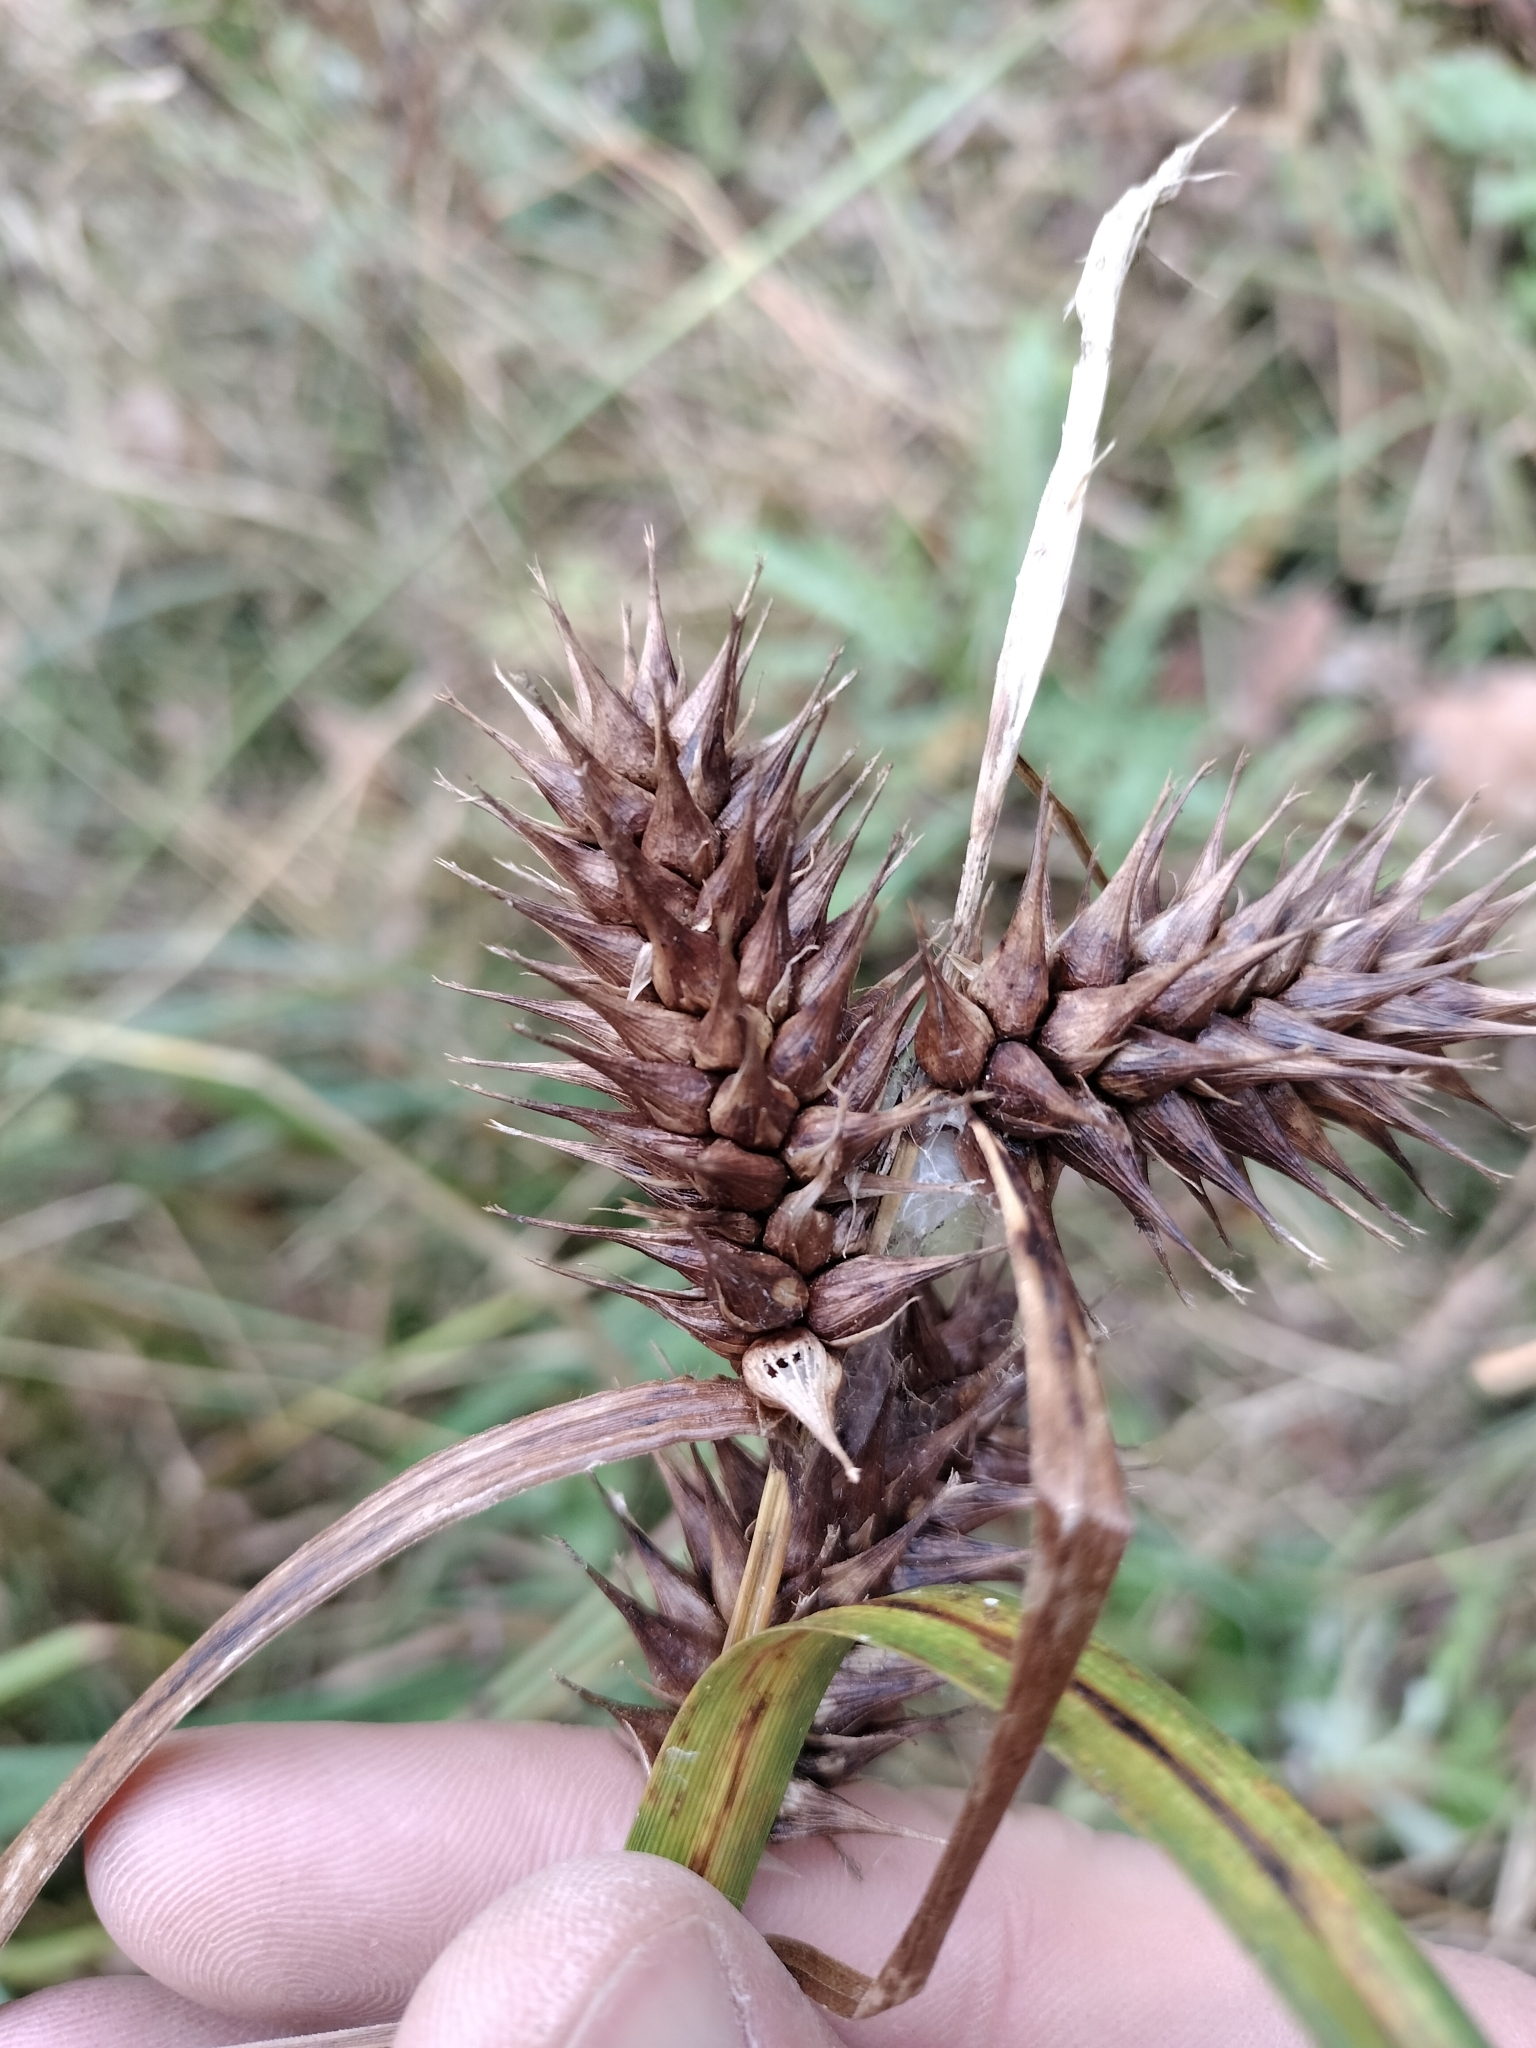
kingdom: Plantae
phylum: Tracheophyta
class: Liliopsida
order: Poales
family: Cyperaceae
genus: Carex
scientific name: Carex lupulina
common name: Hop sedge
